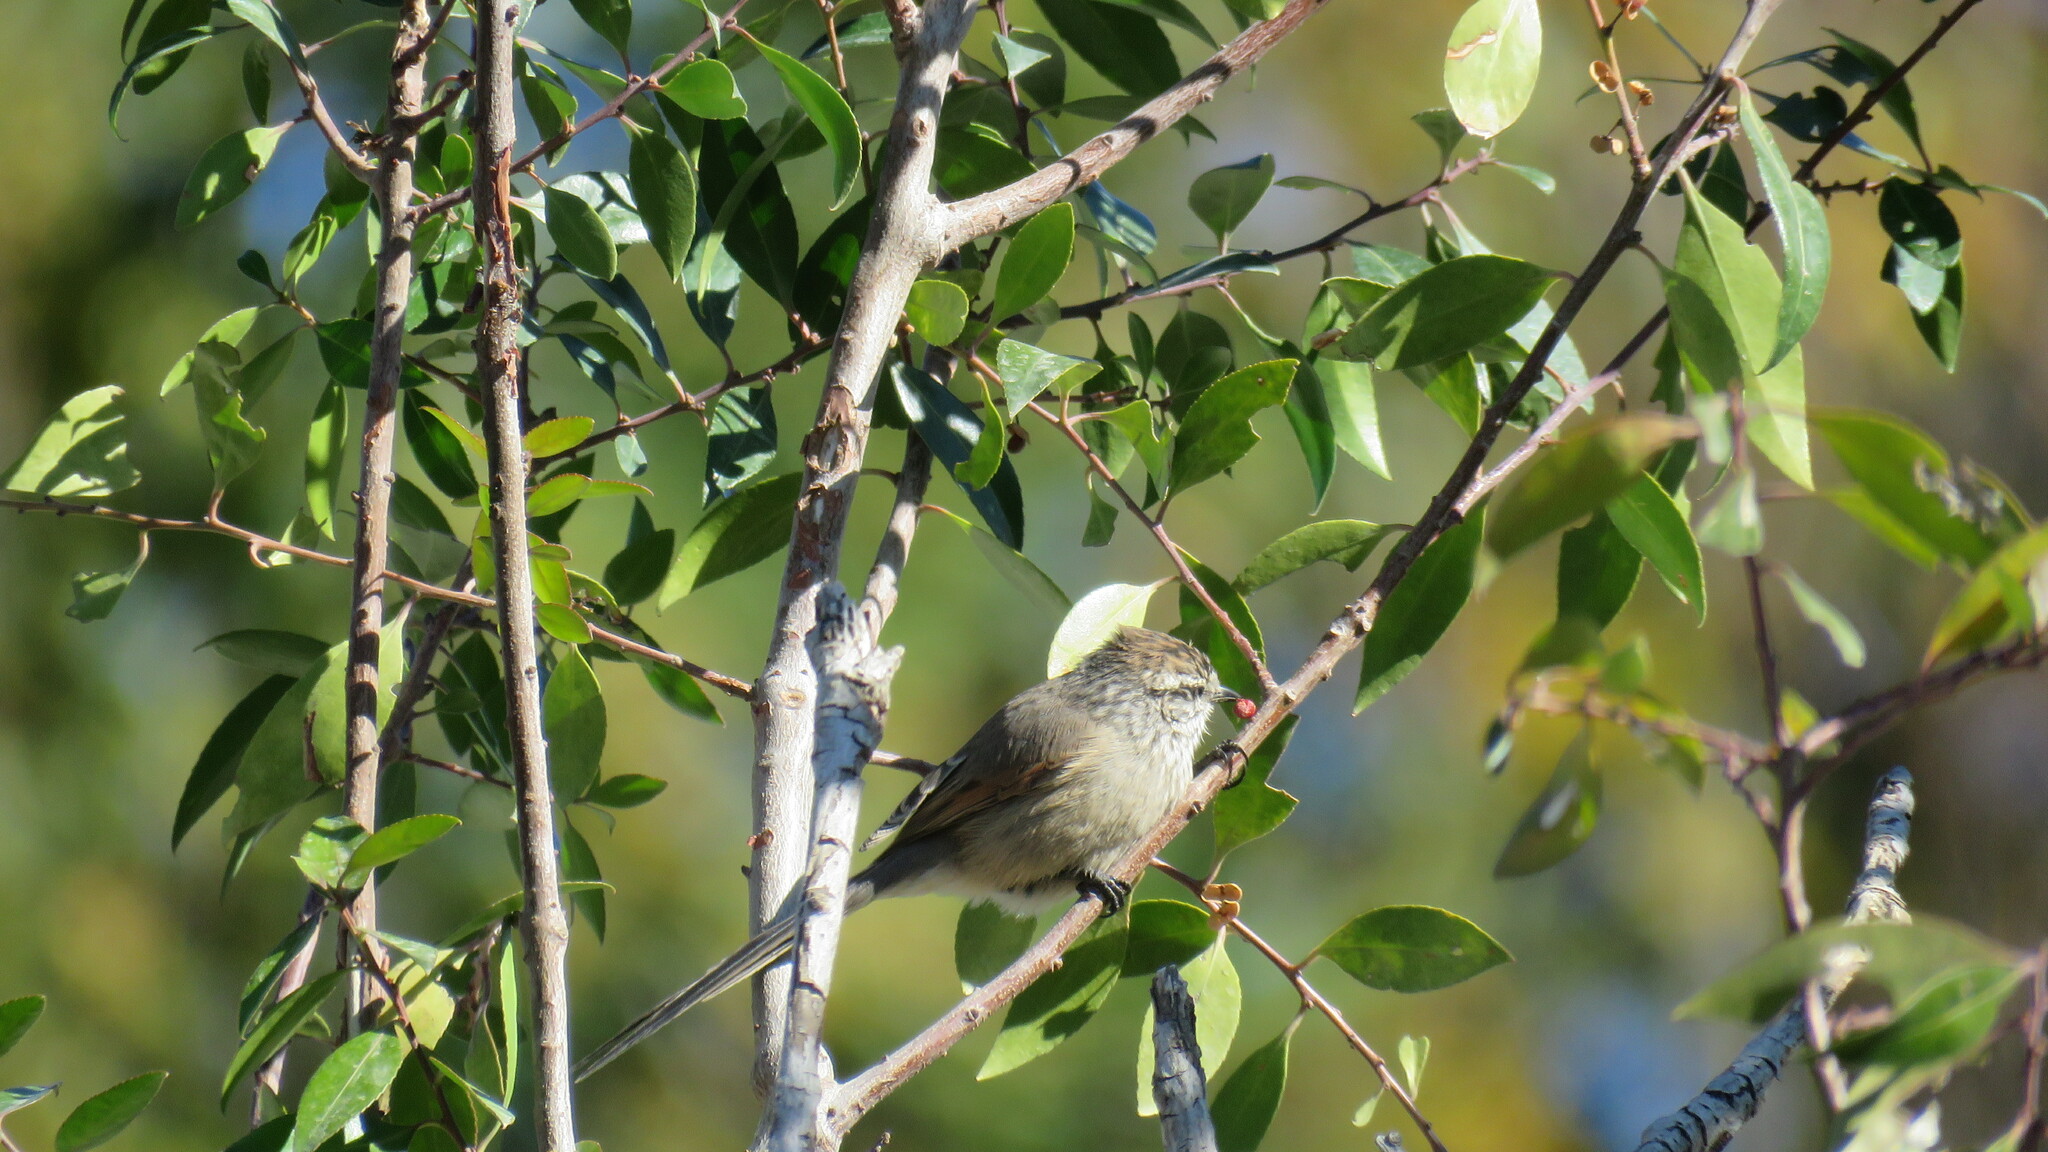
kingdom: Animalia
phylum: Chordata
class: Aves
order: Passeriformes
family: Furnariidae
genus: Leptasthenura
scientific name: Leptasthenura aegithaloides
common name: Plain-mantled tit-spinetail
